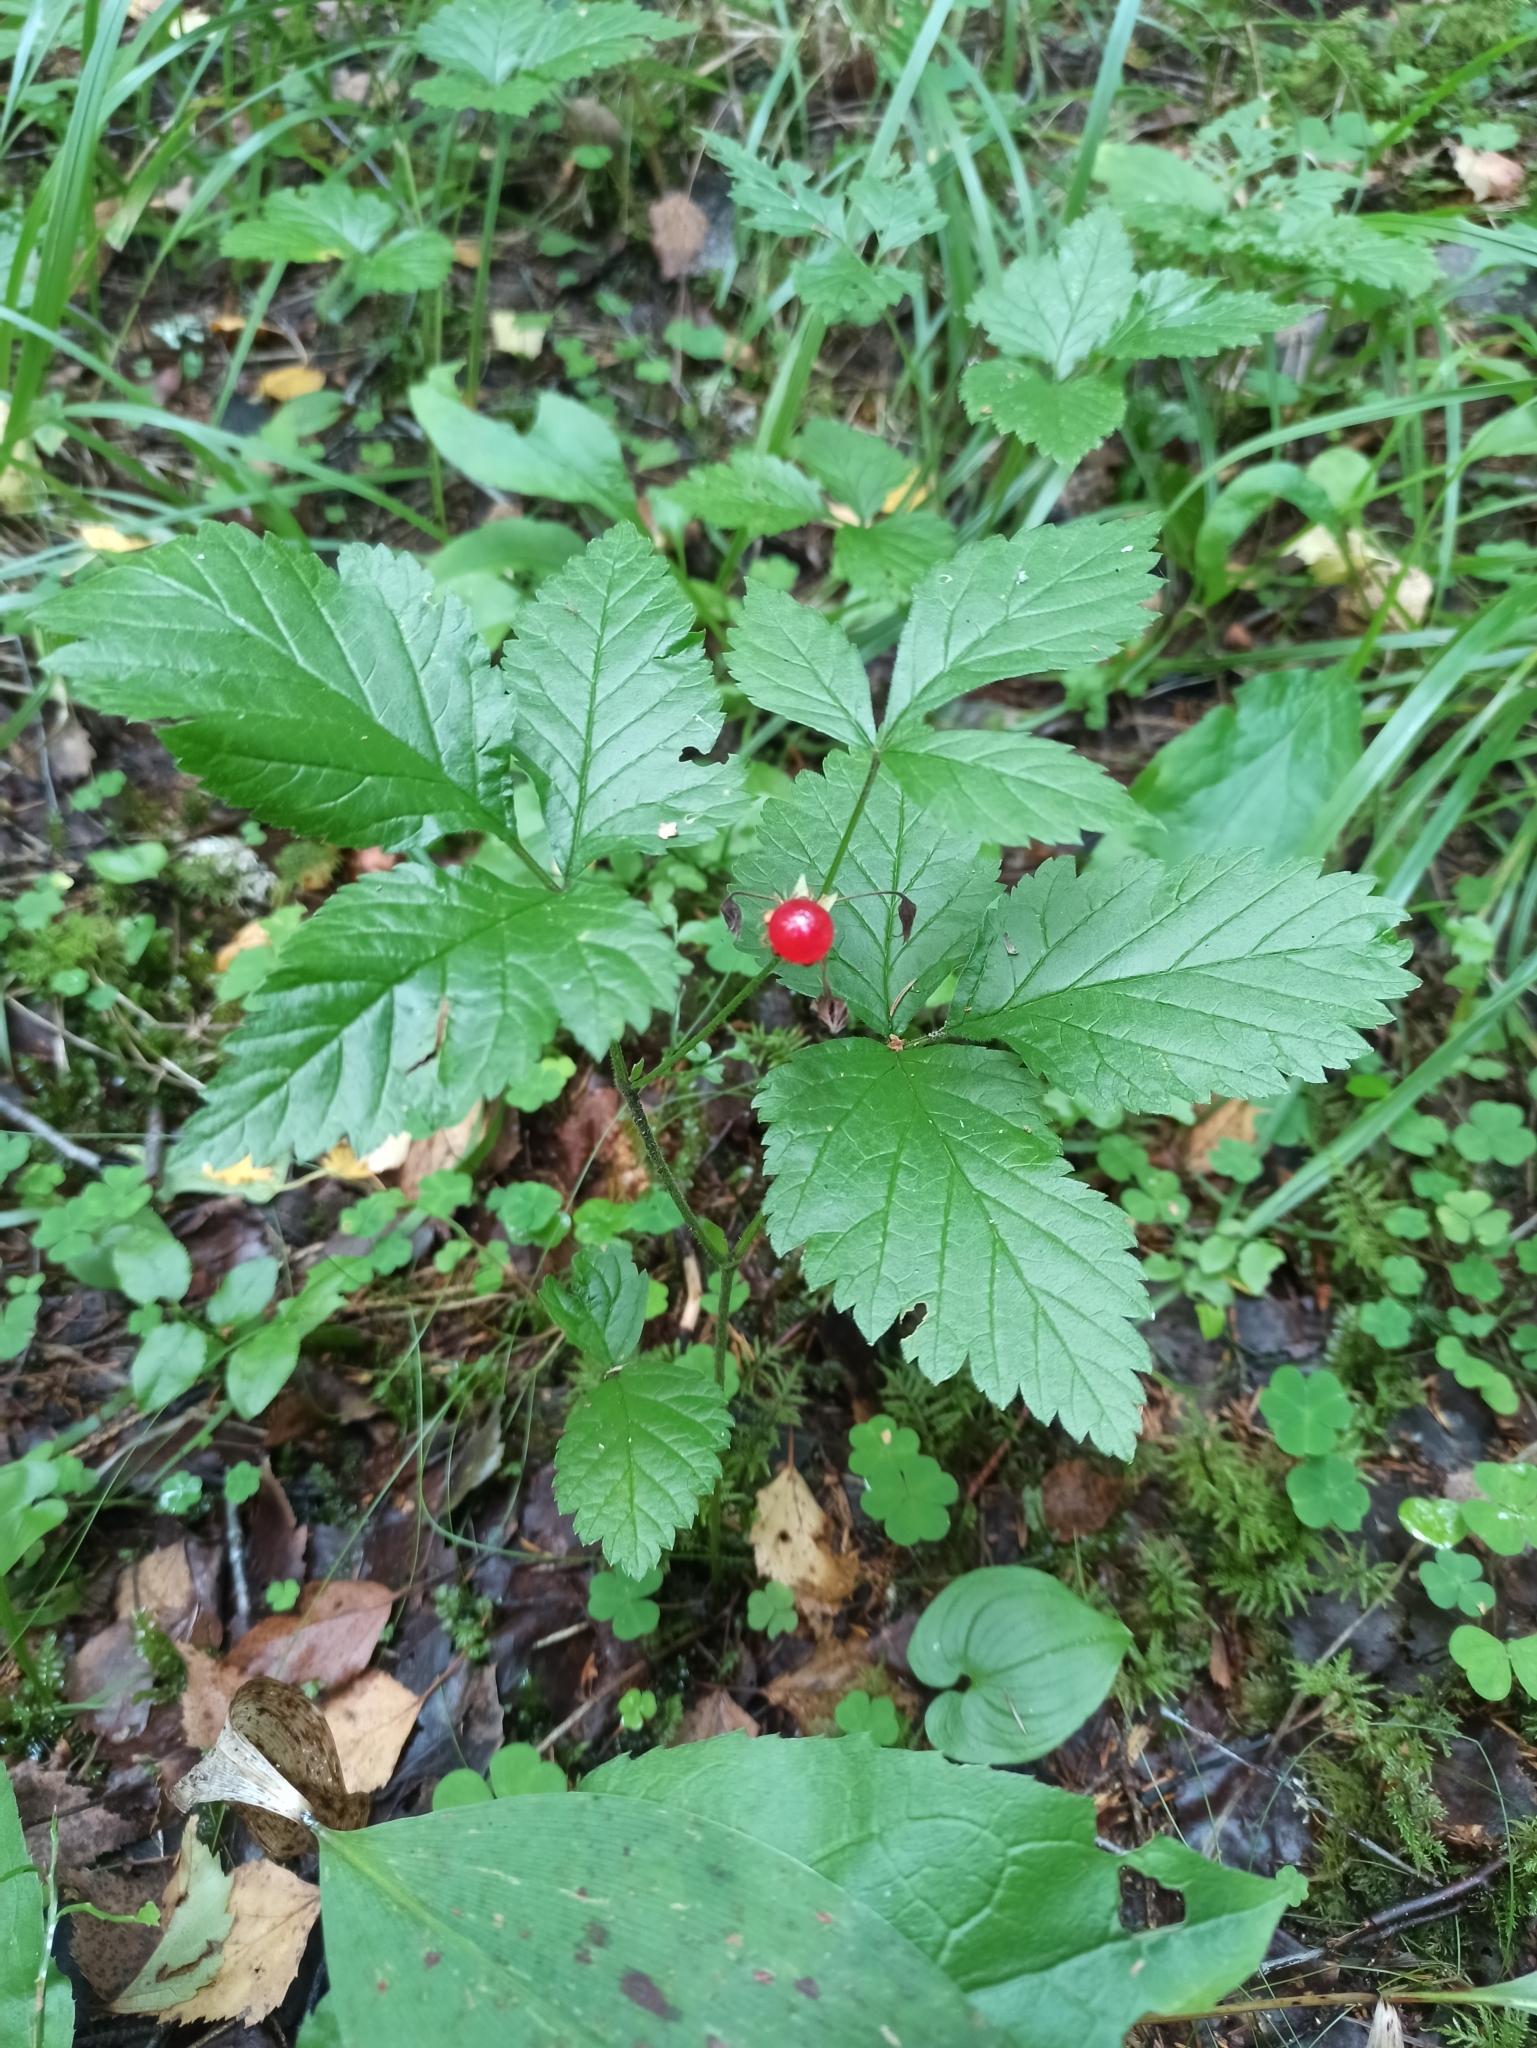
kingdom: Plantae
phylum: Tracheophyta
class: Magnoliopsida
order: Rosales
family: Rosaceae
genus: Rubus
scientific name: Rubus saxatilis
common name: Stone bramble
